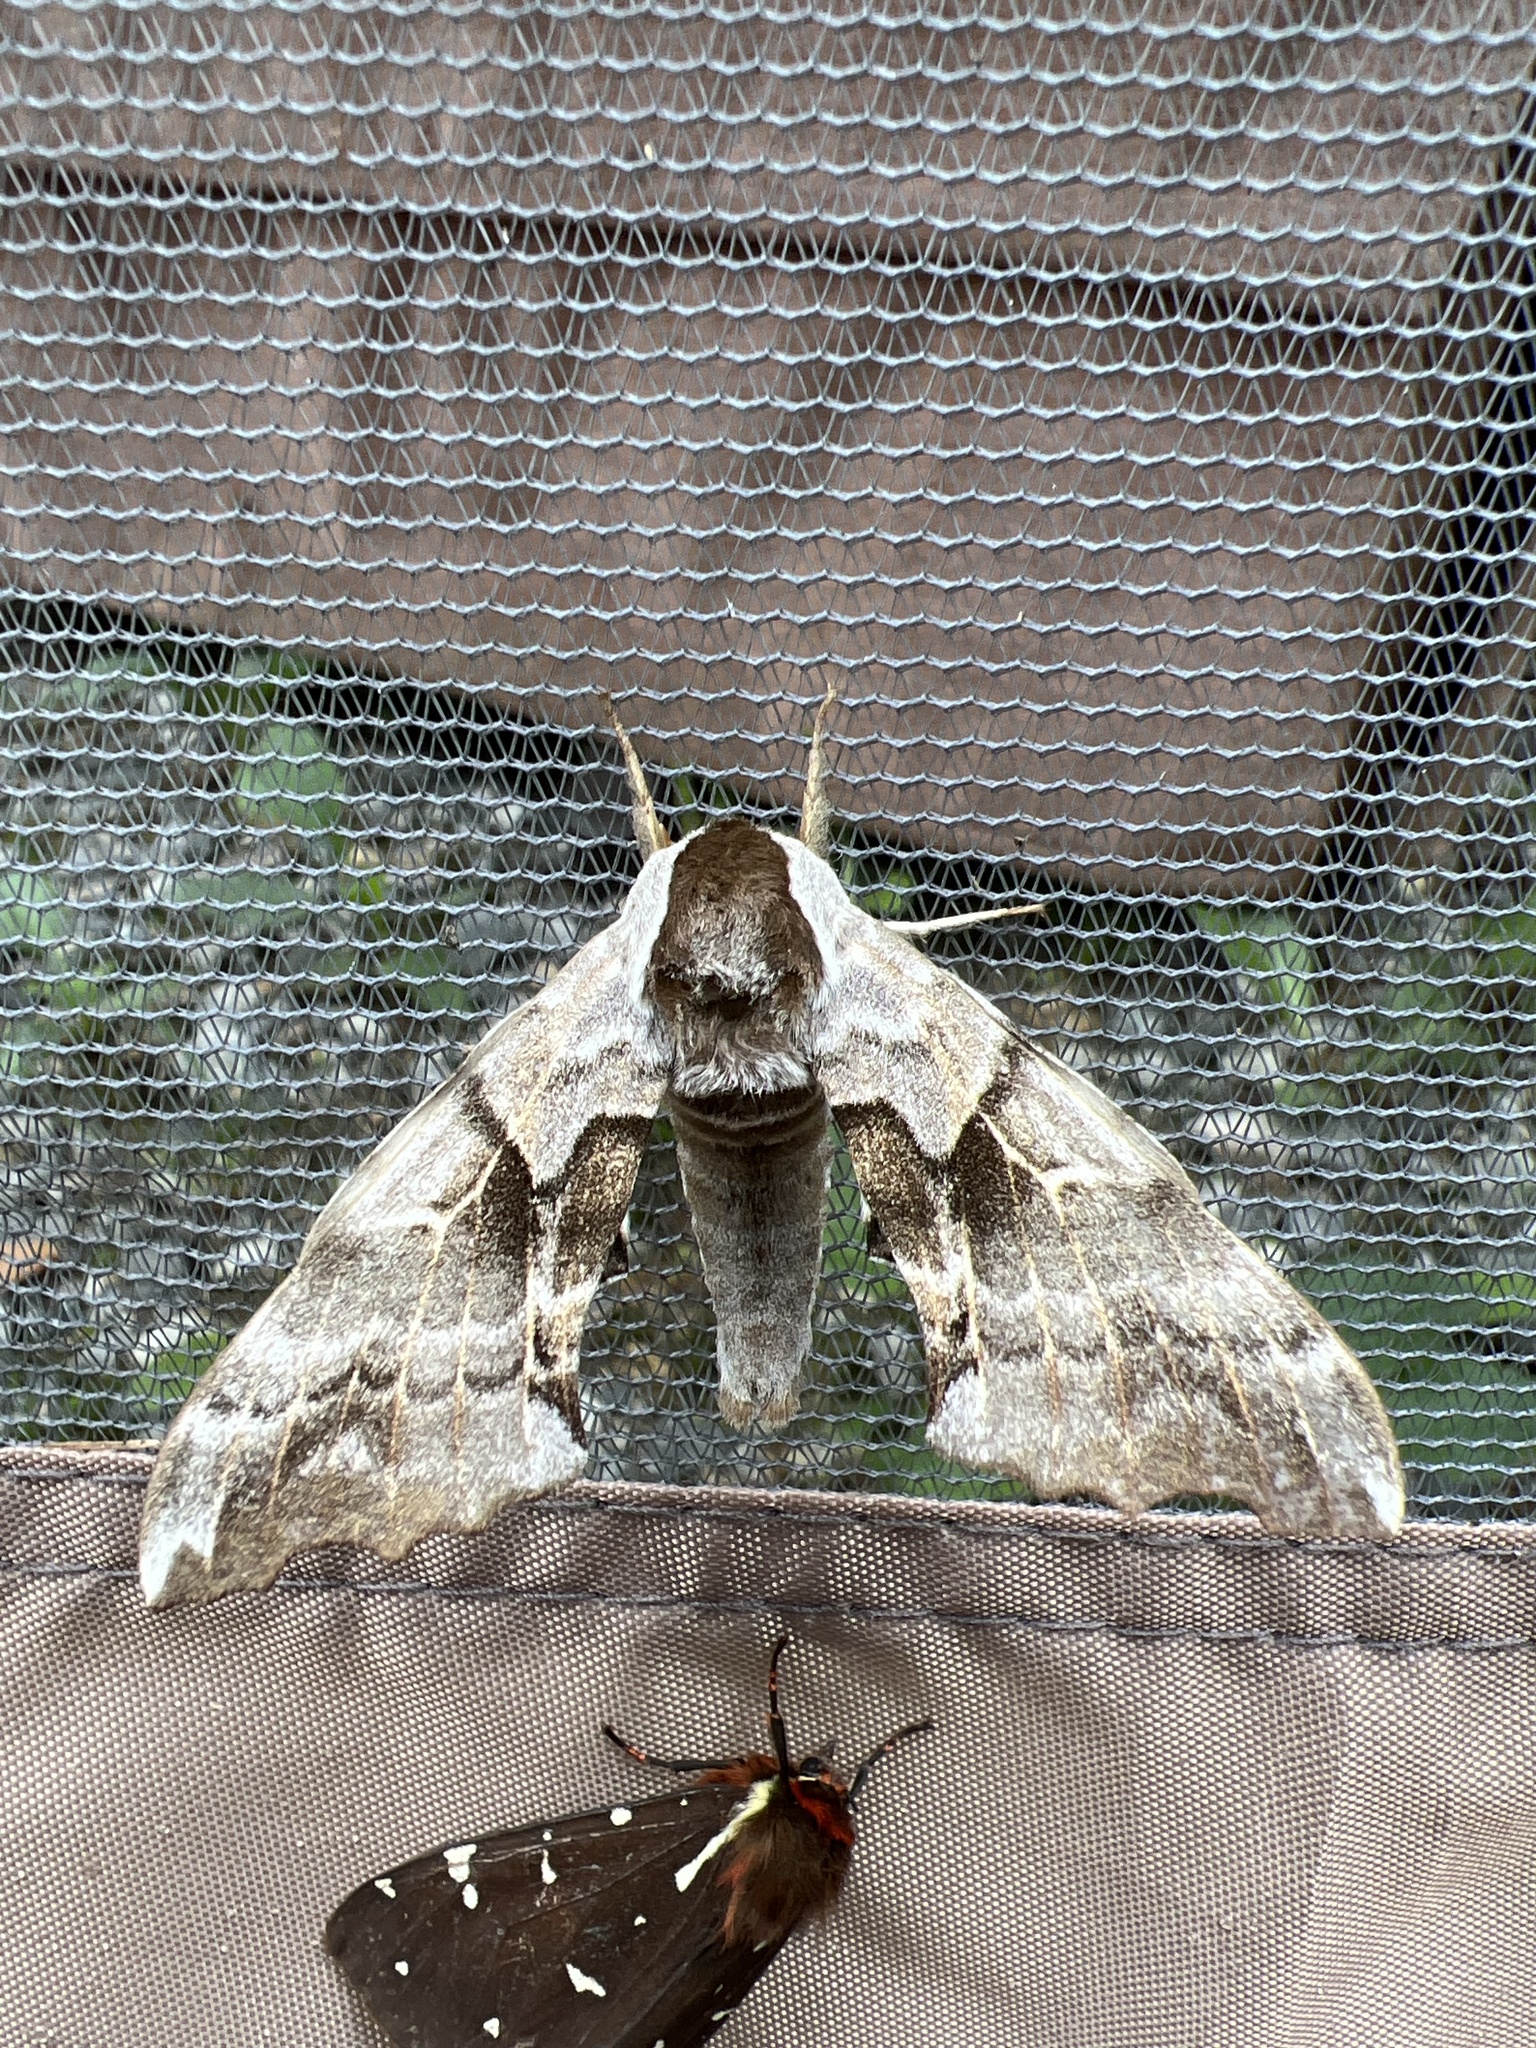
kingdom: Animalia
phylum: Arthropoda
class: Insecta
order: Lepidoptera
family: Sphingidae
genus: Smerinthus
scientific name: Smerinthus cerisyi
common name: Cerisy's sphinx moth
